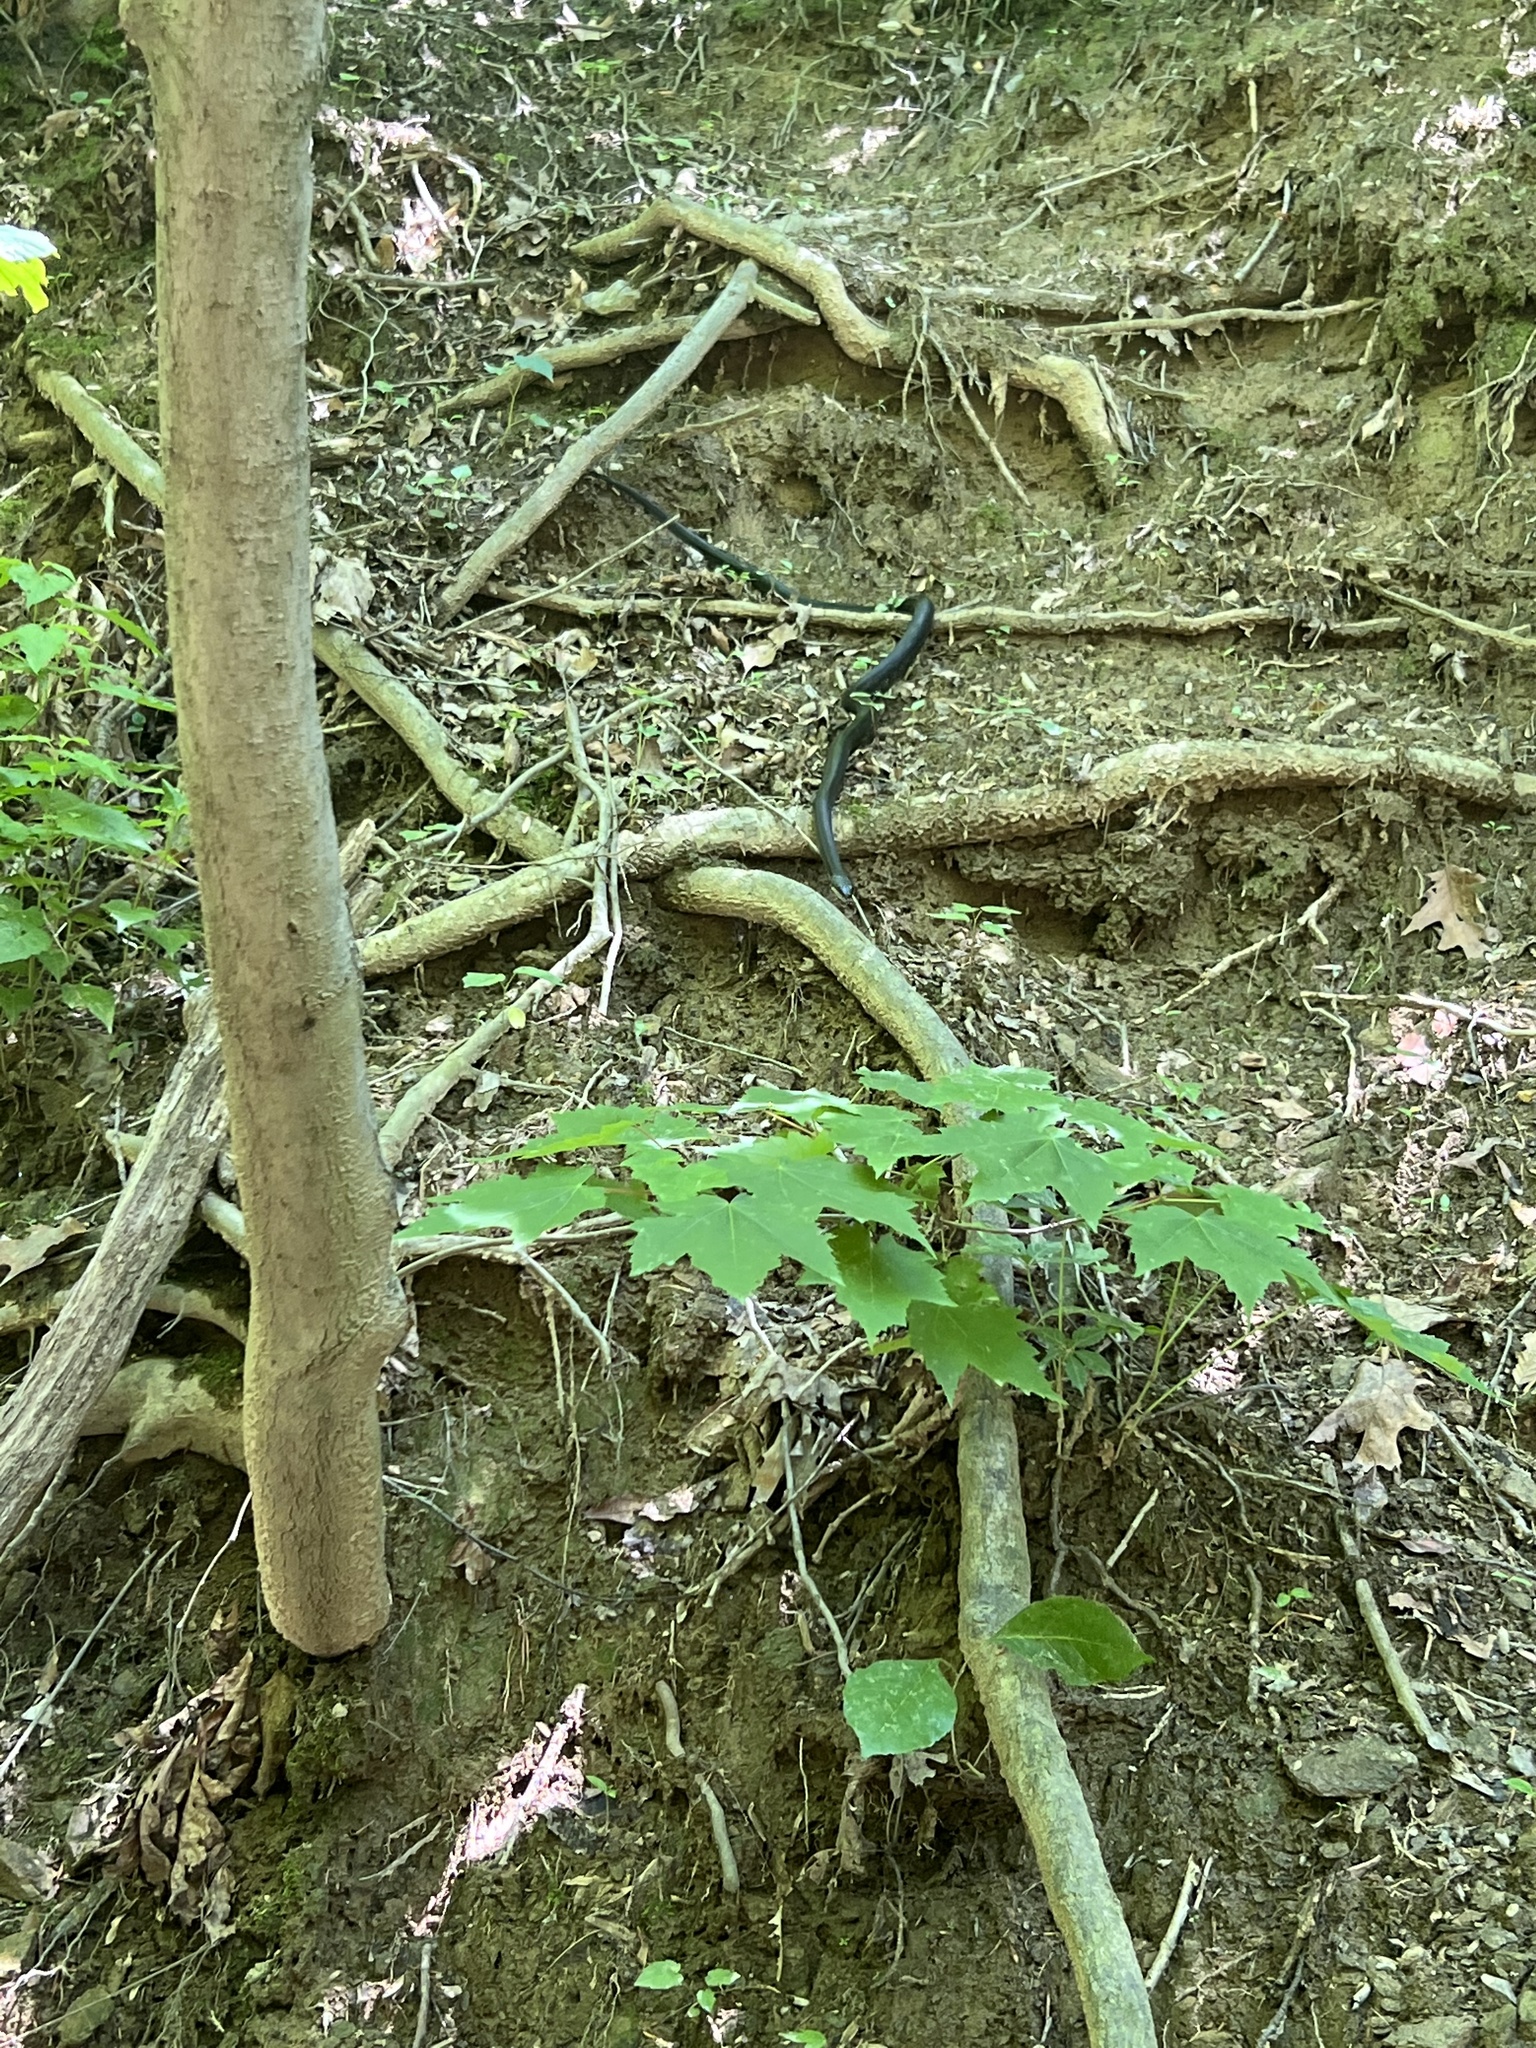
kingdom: Animalia
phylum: Chordata
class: Squamata
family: Colubridae
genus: Pantherophis
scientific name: Pantherophis alleghaniensis
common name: Eastern rat snake
